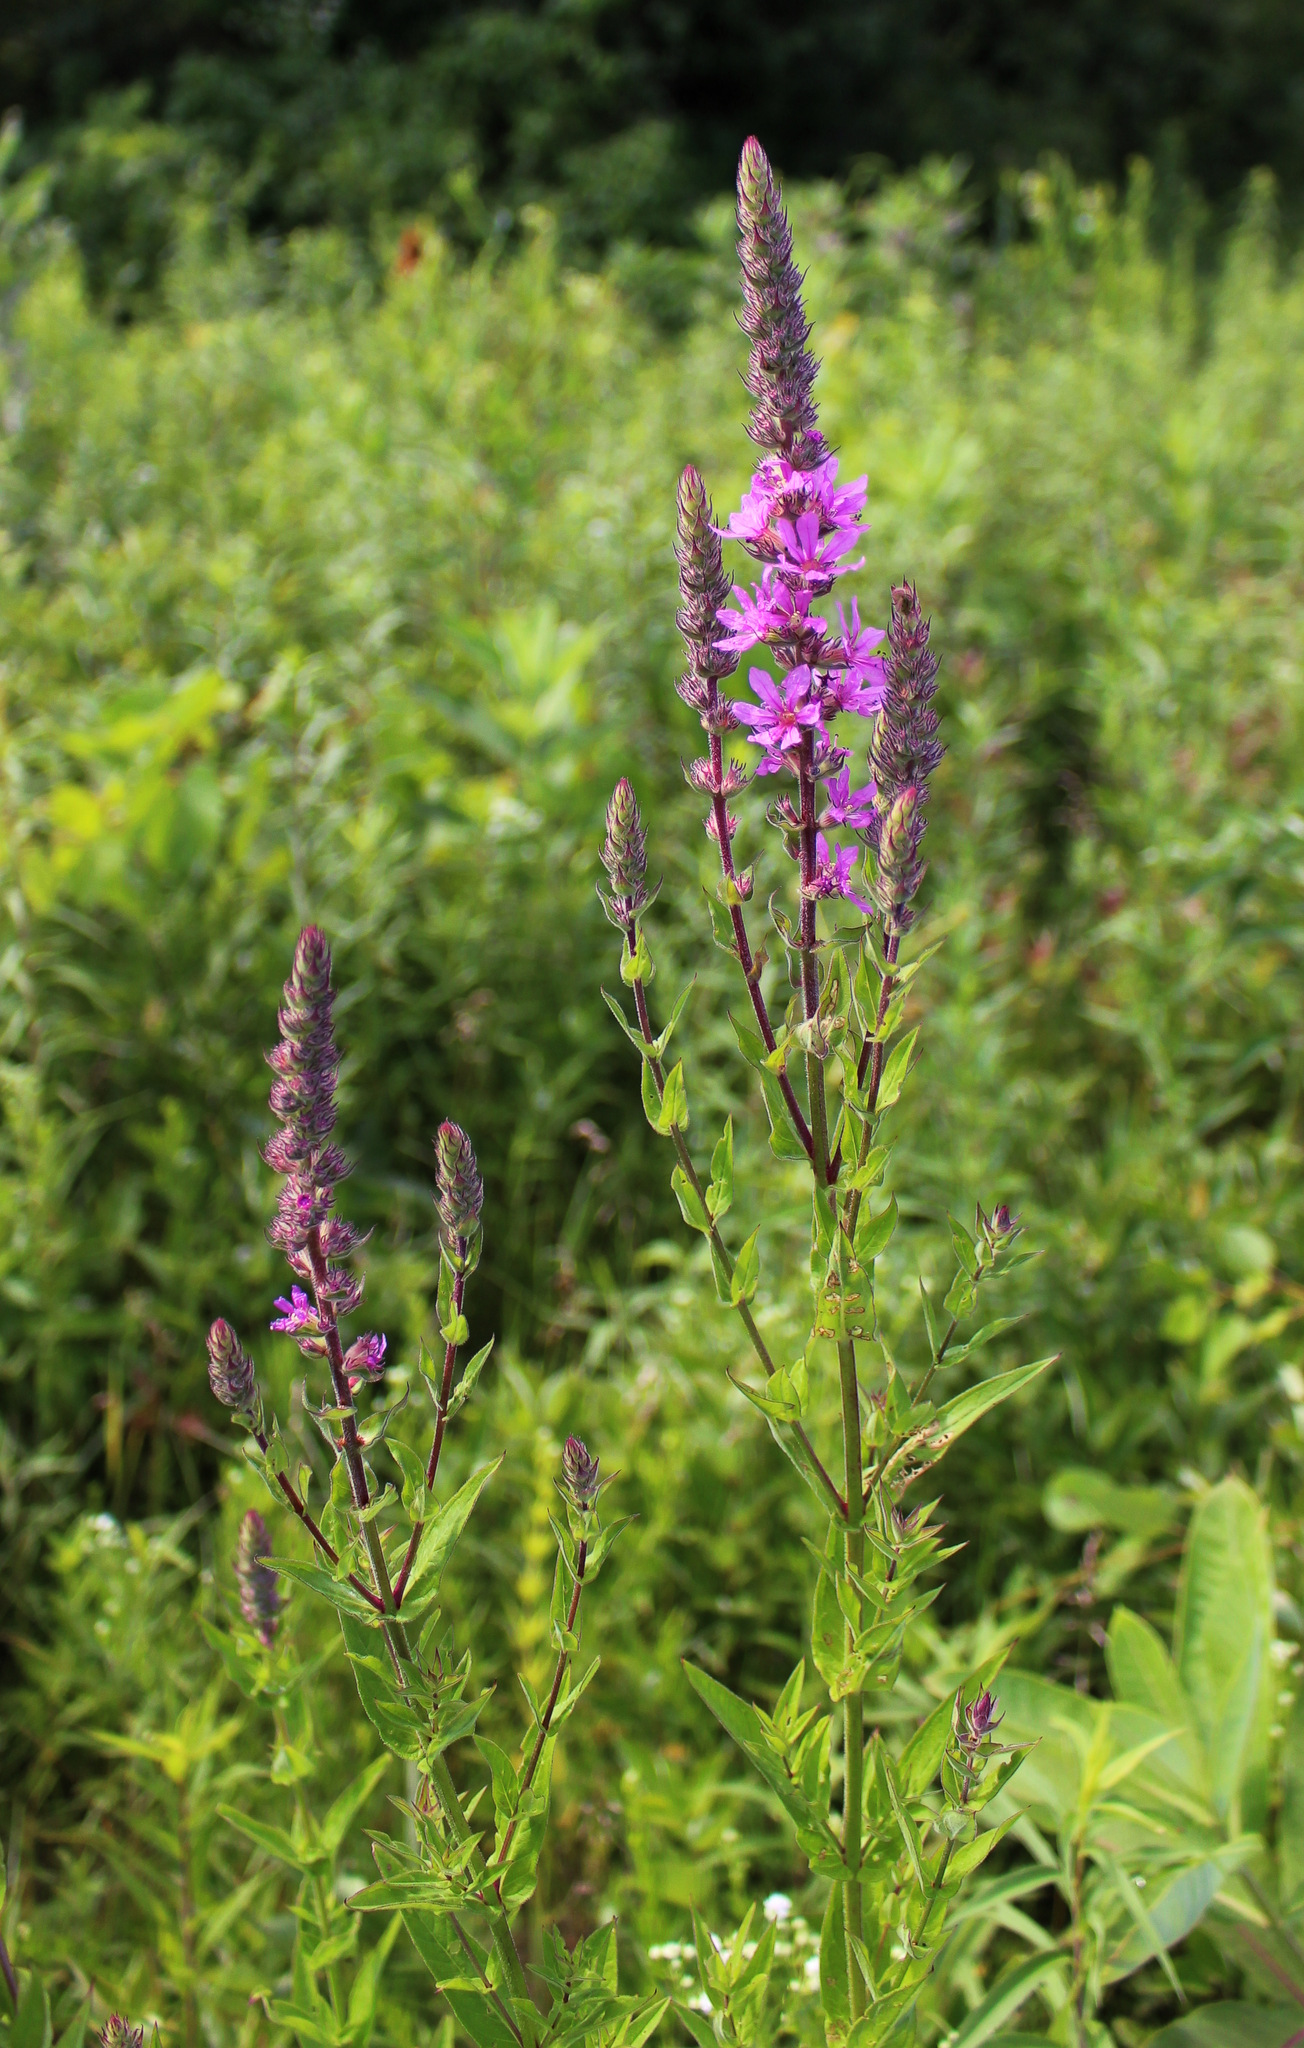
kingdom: Plantae
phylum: Tracheophyta
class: Magnoliopsida
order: Myrtales
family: Lythraceae
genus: Lythrum
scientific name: Lythrum salicaria
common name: Purple loosestrife
